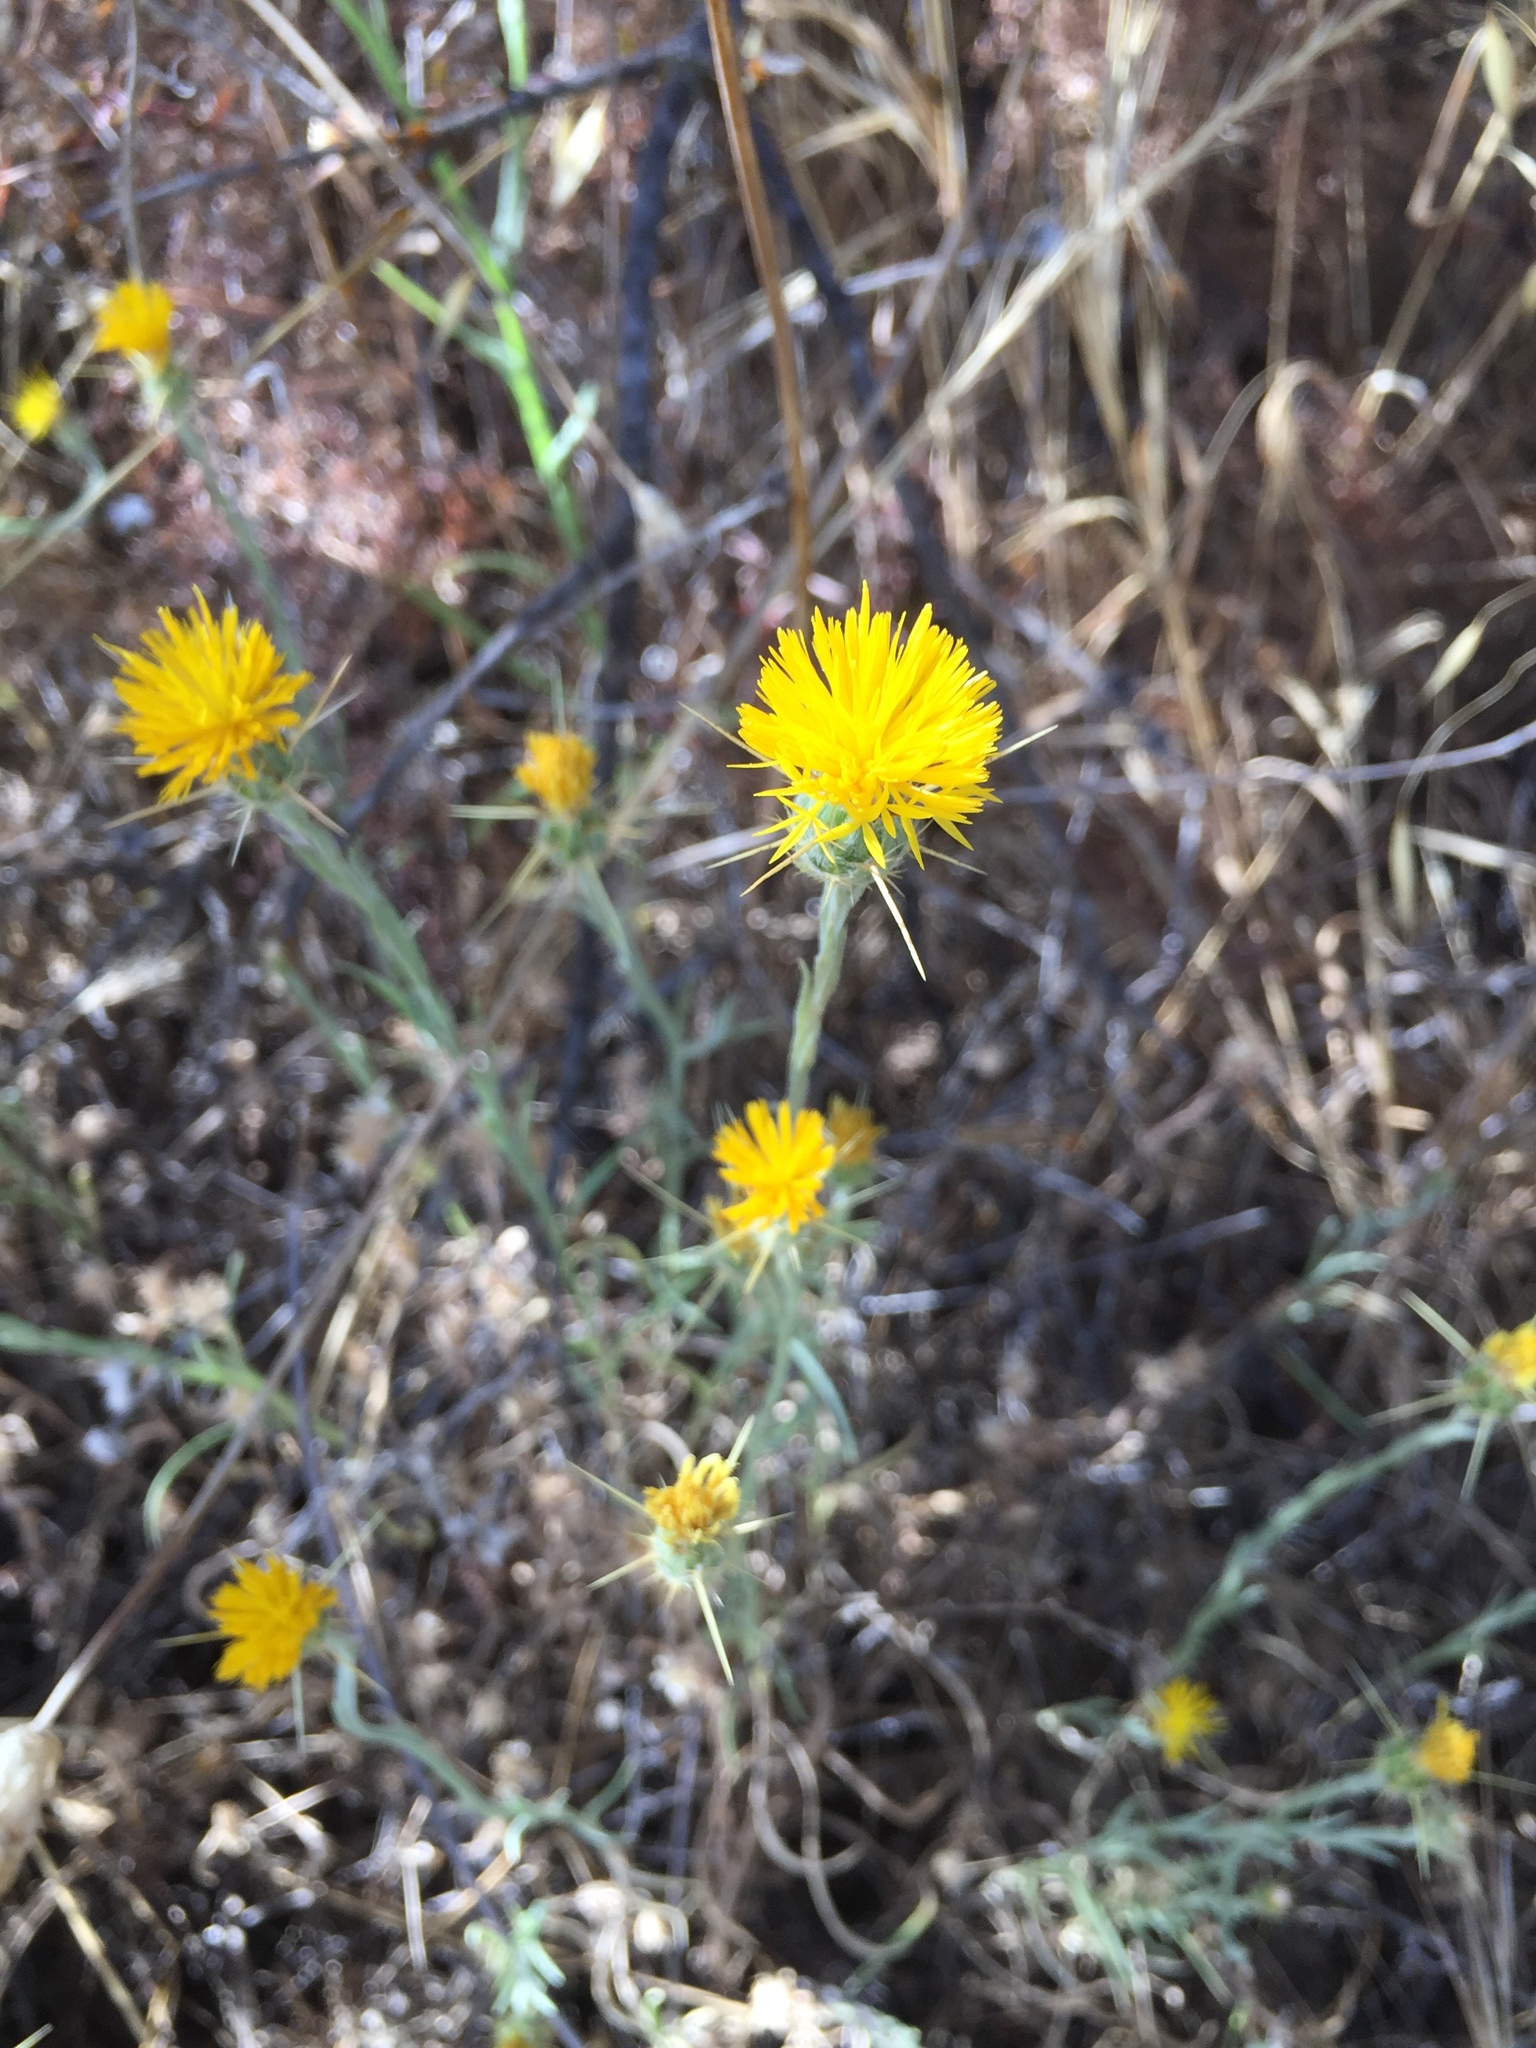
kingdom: Plantae
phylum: Tracheophyta
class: Magnoliopsida
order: Asterales
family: Asteraceae
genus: Centaurea
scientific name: Centaurea solstitialis
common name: Yellow star-thistle
